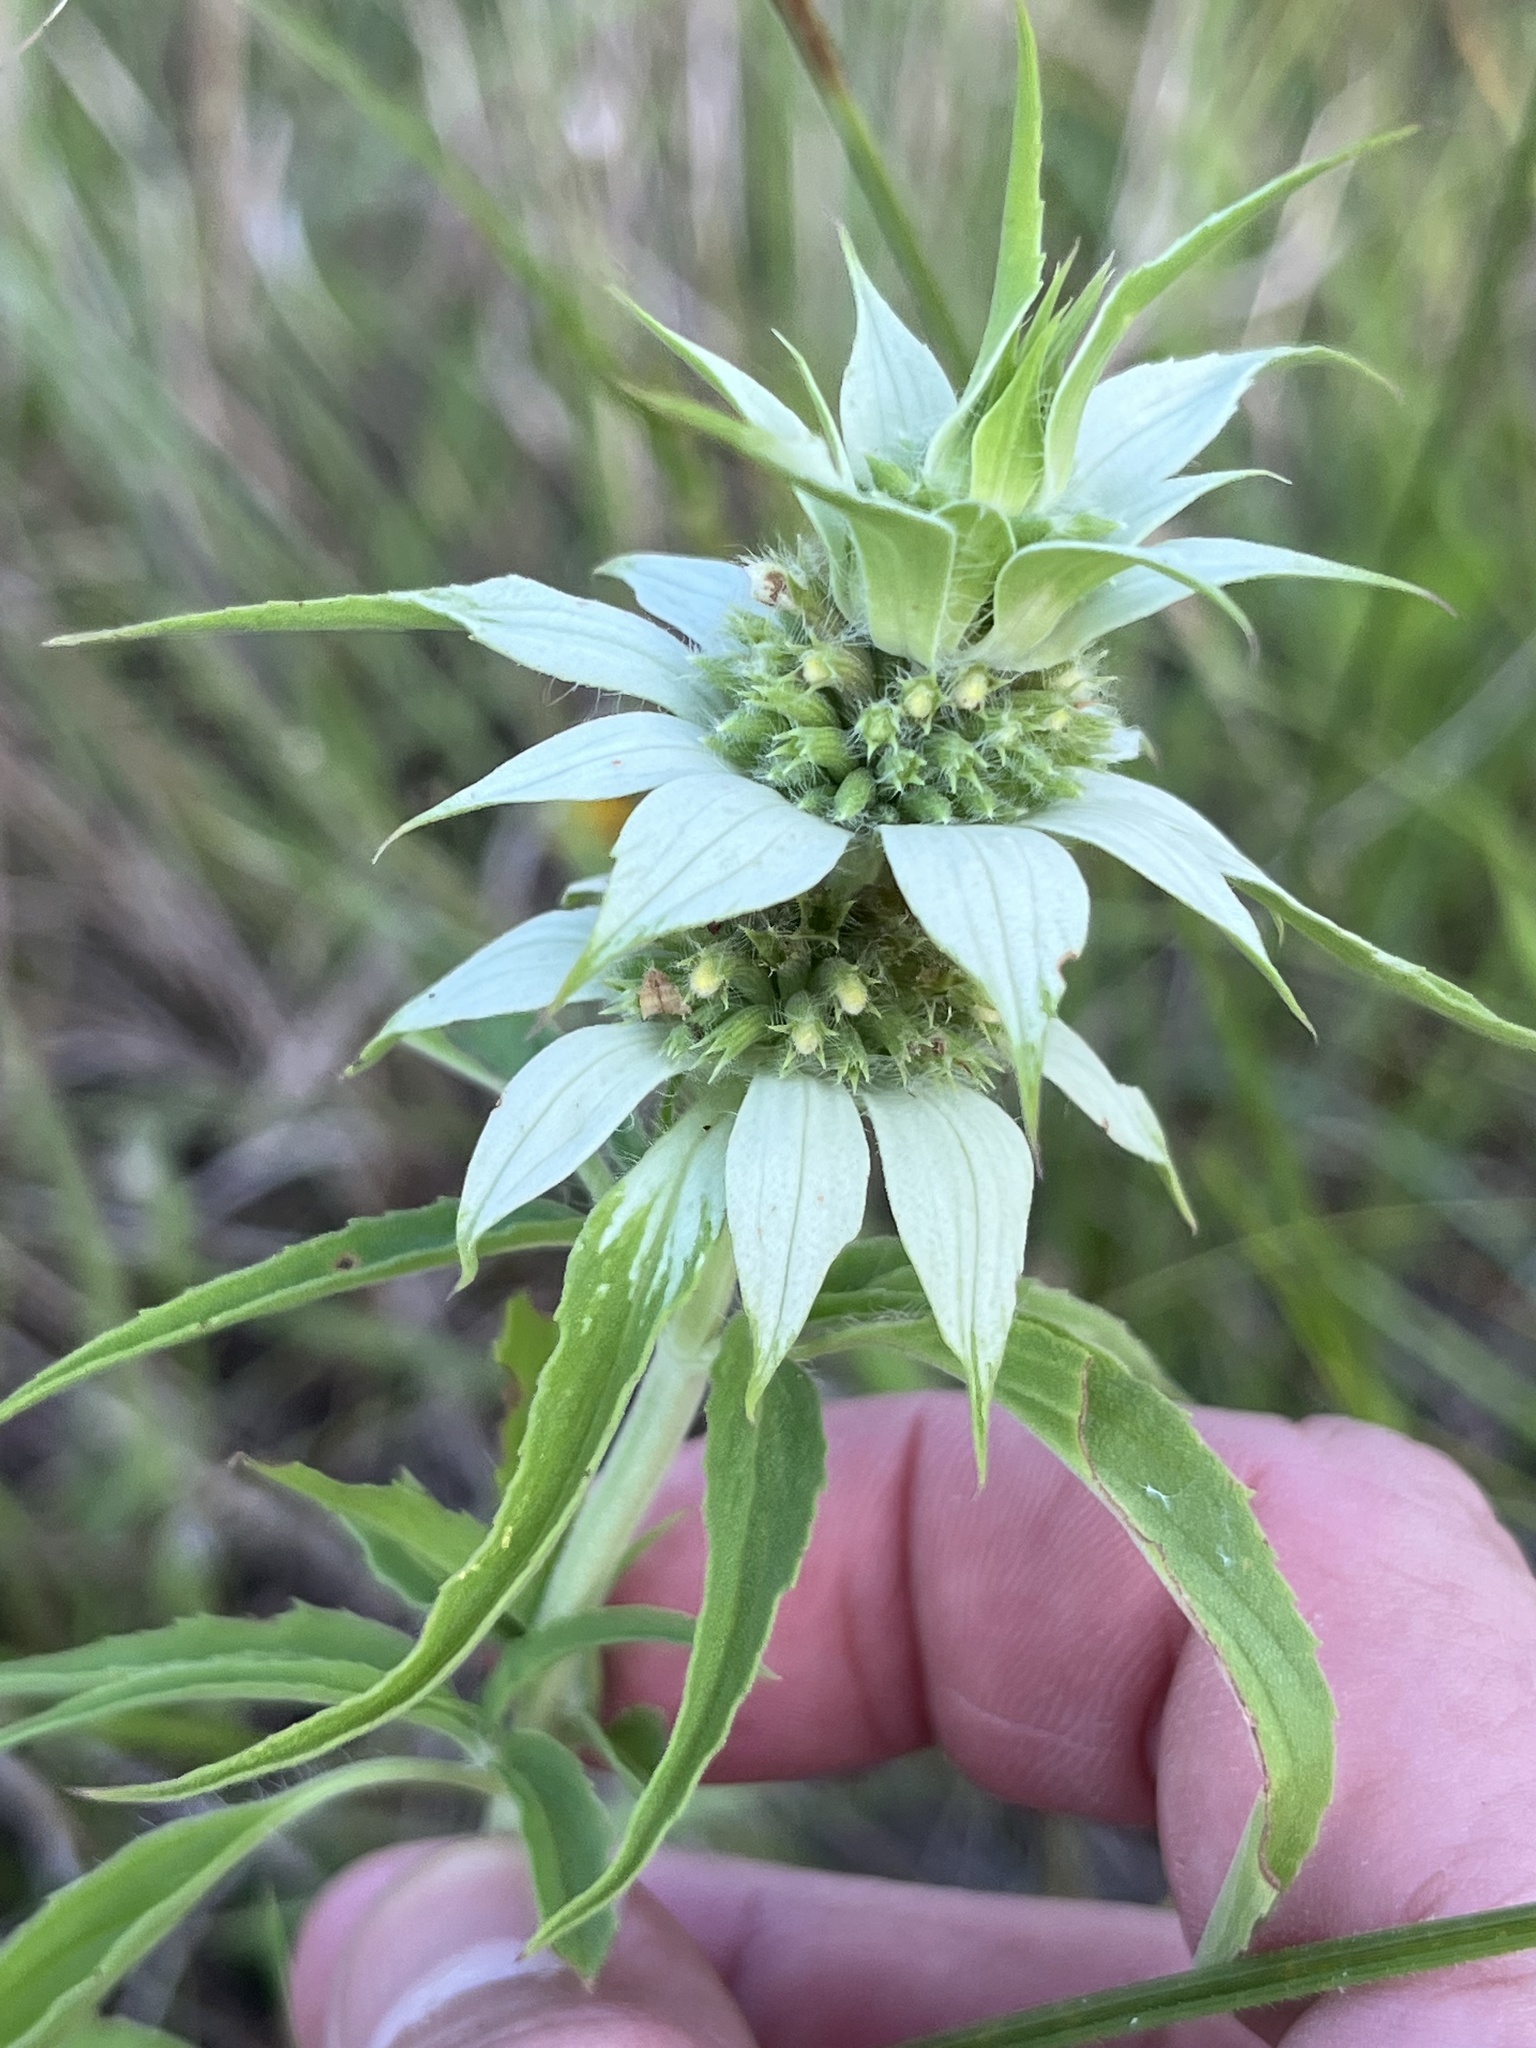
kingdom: Plantae
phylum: Tracheophyta
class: Magnoliopsida
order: Lamiales
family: Lamiaceae
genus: Monarda
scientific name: Monarda punctata
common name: Dotted monarda
